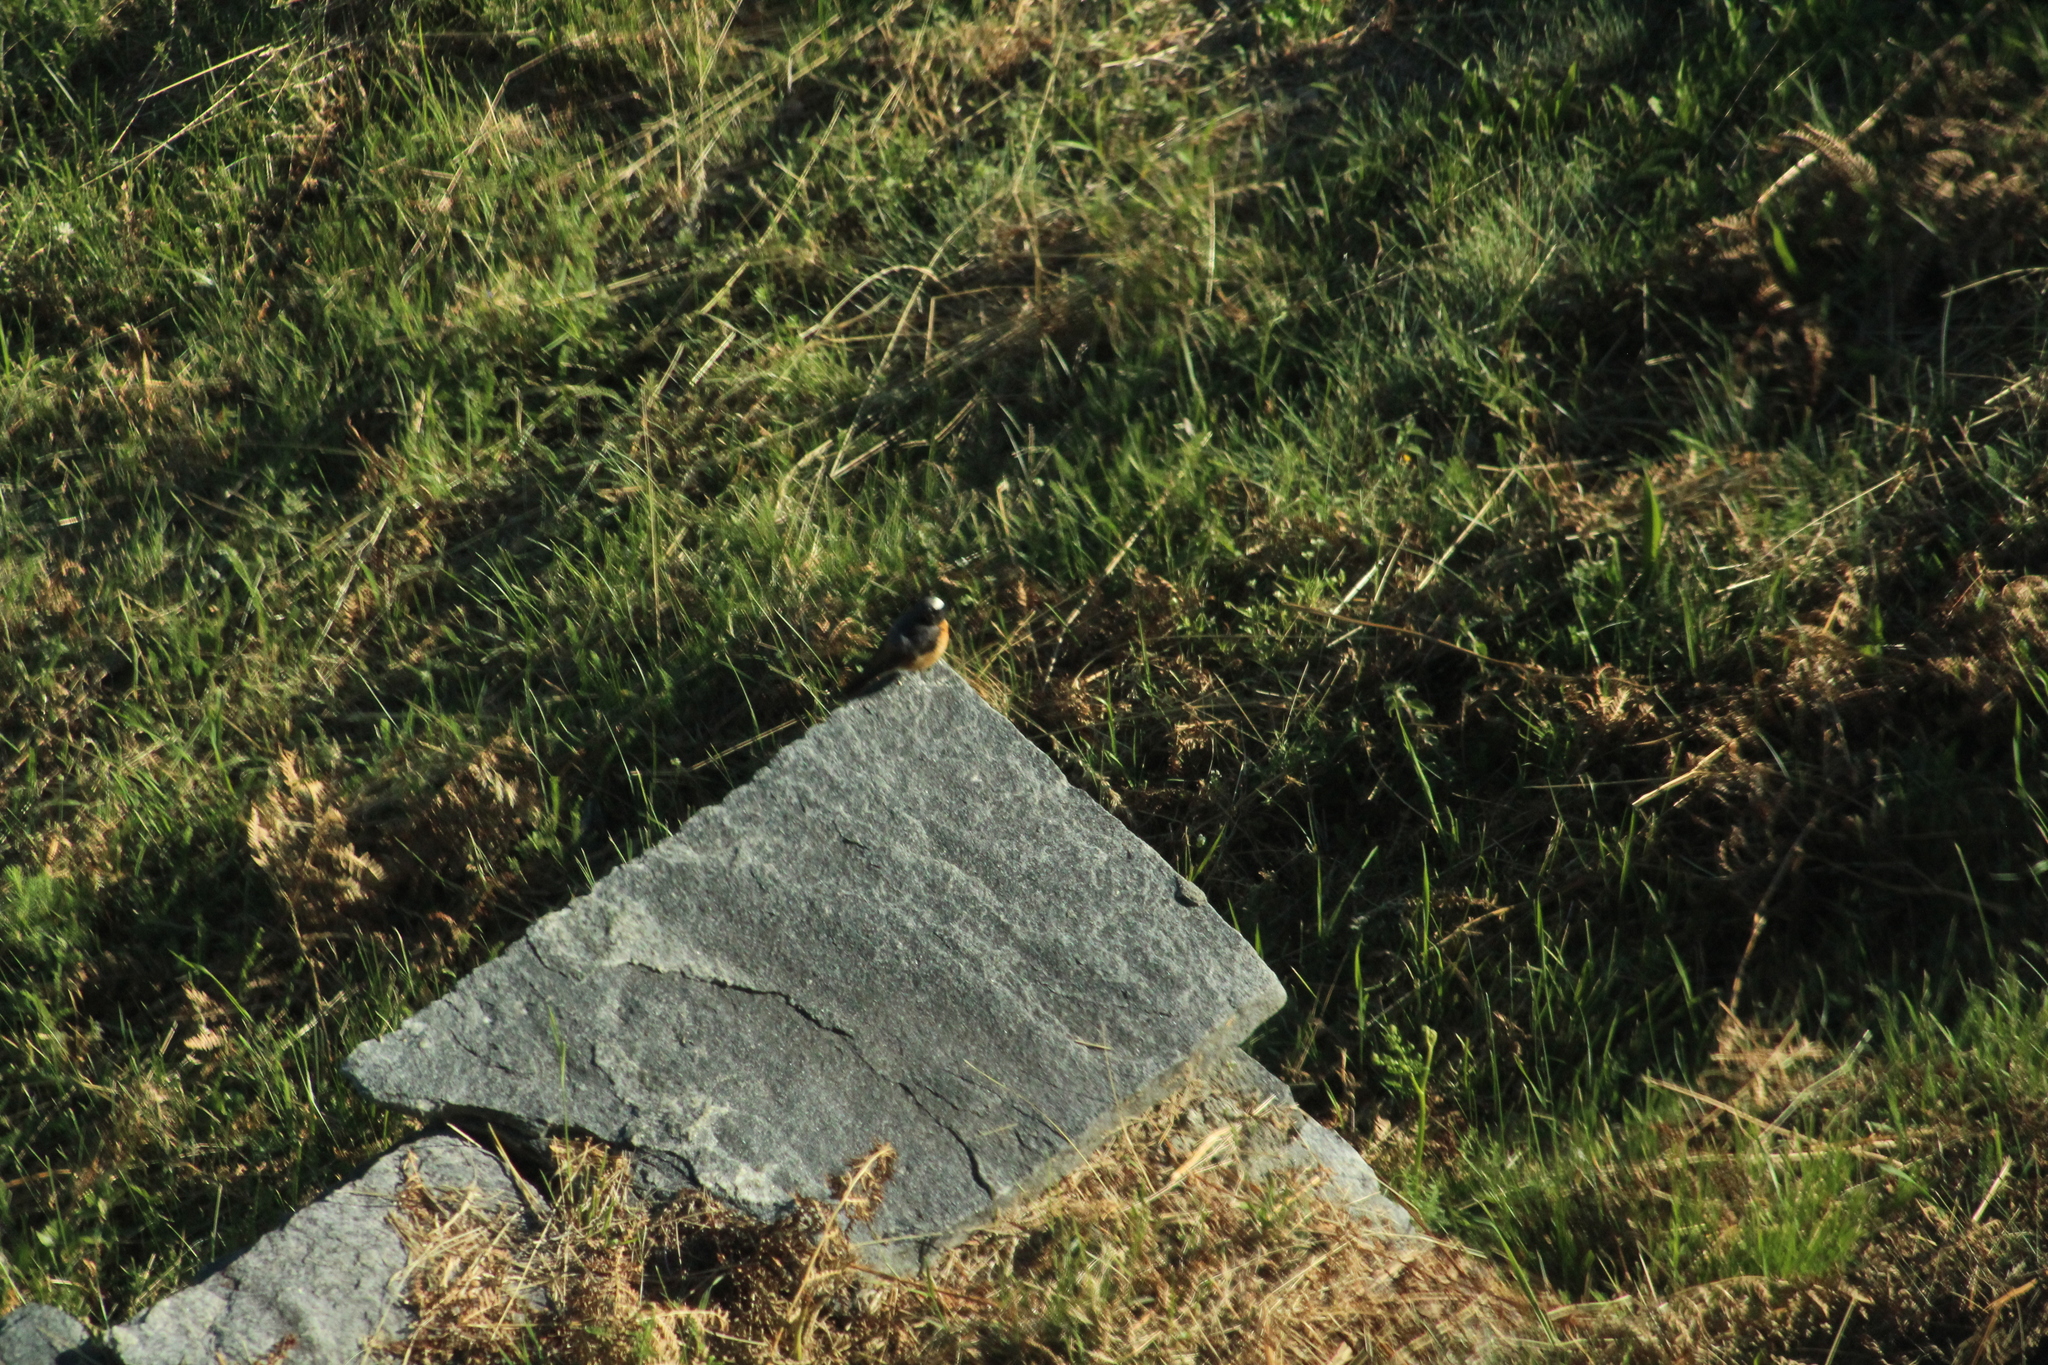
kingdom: Animalia
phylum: Chordata
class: Aves
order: Passeriformes
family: Muscicapidae
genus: Phoenicurus
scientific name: Phoenicurus phoenicurus
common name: Common redstart
